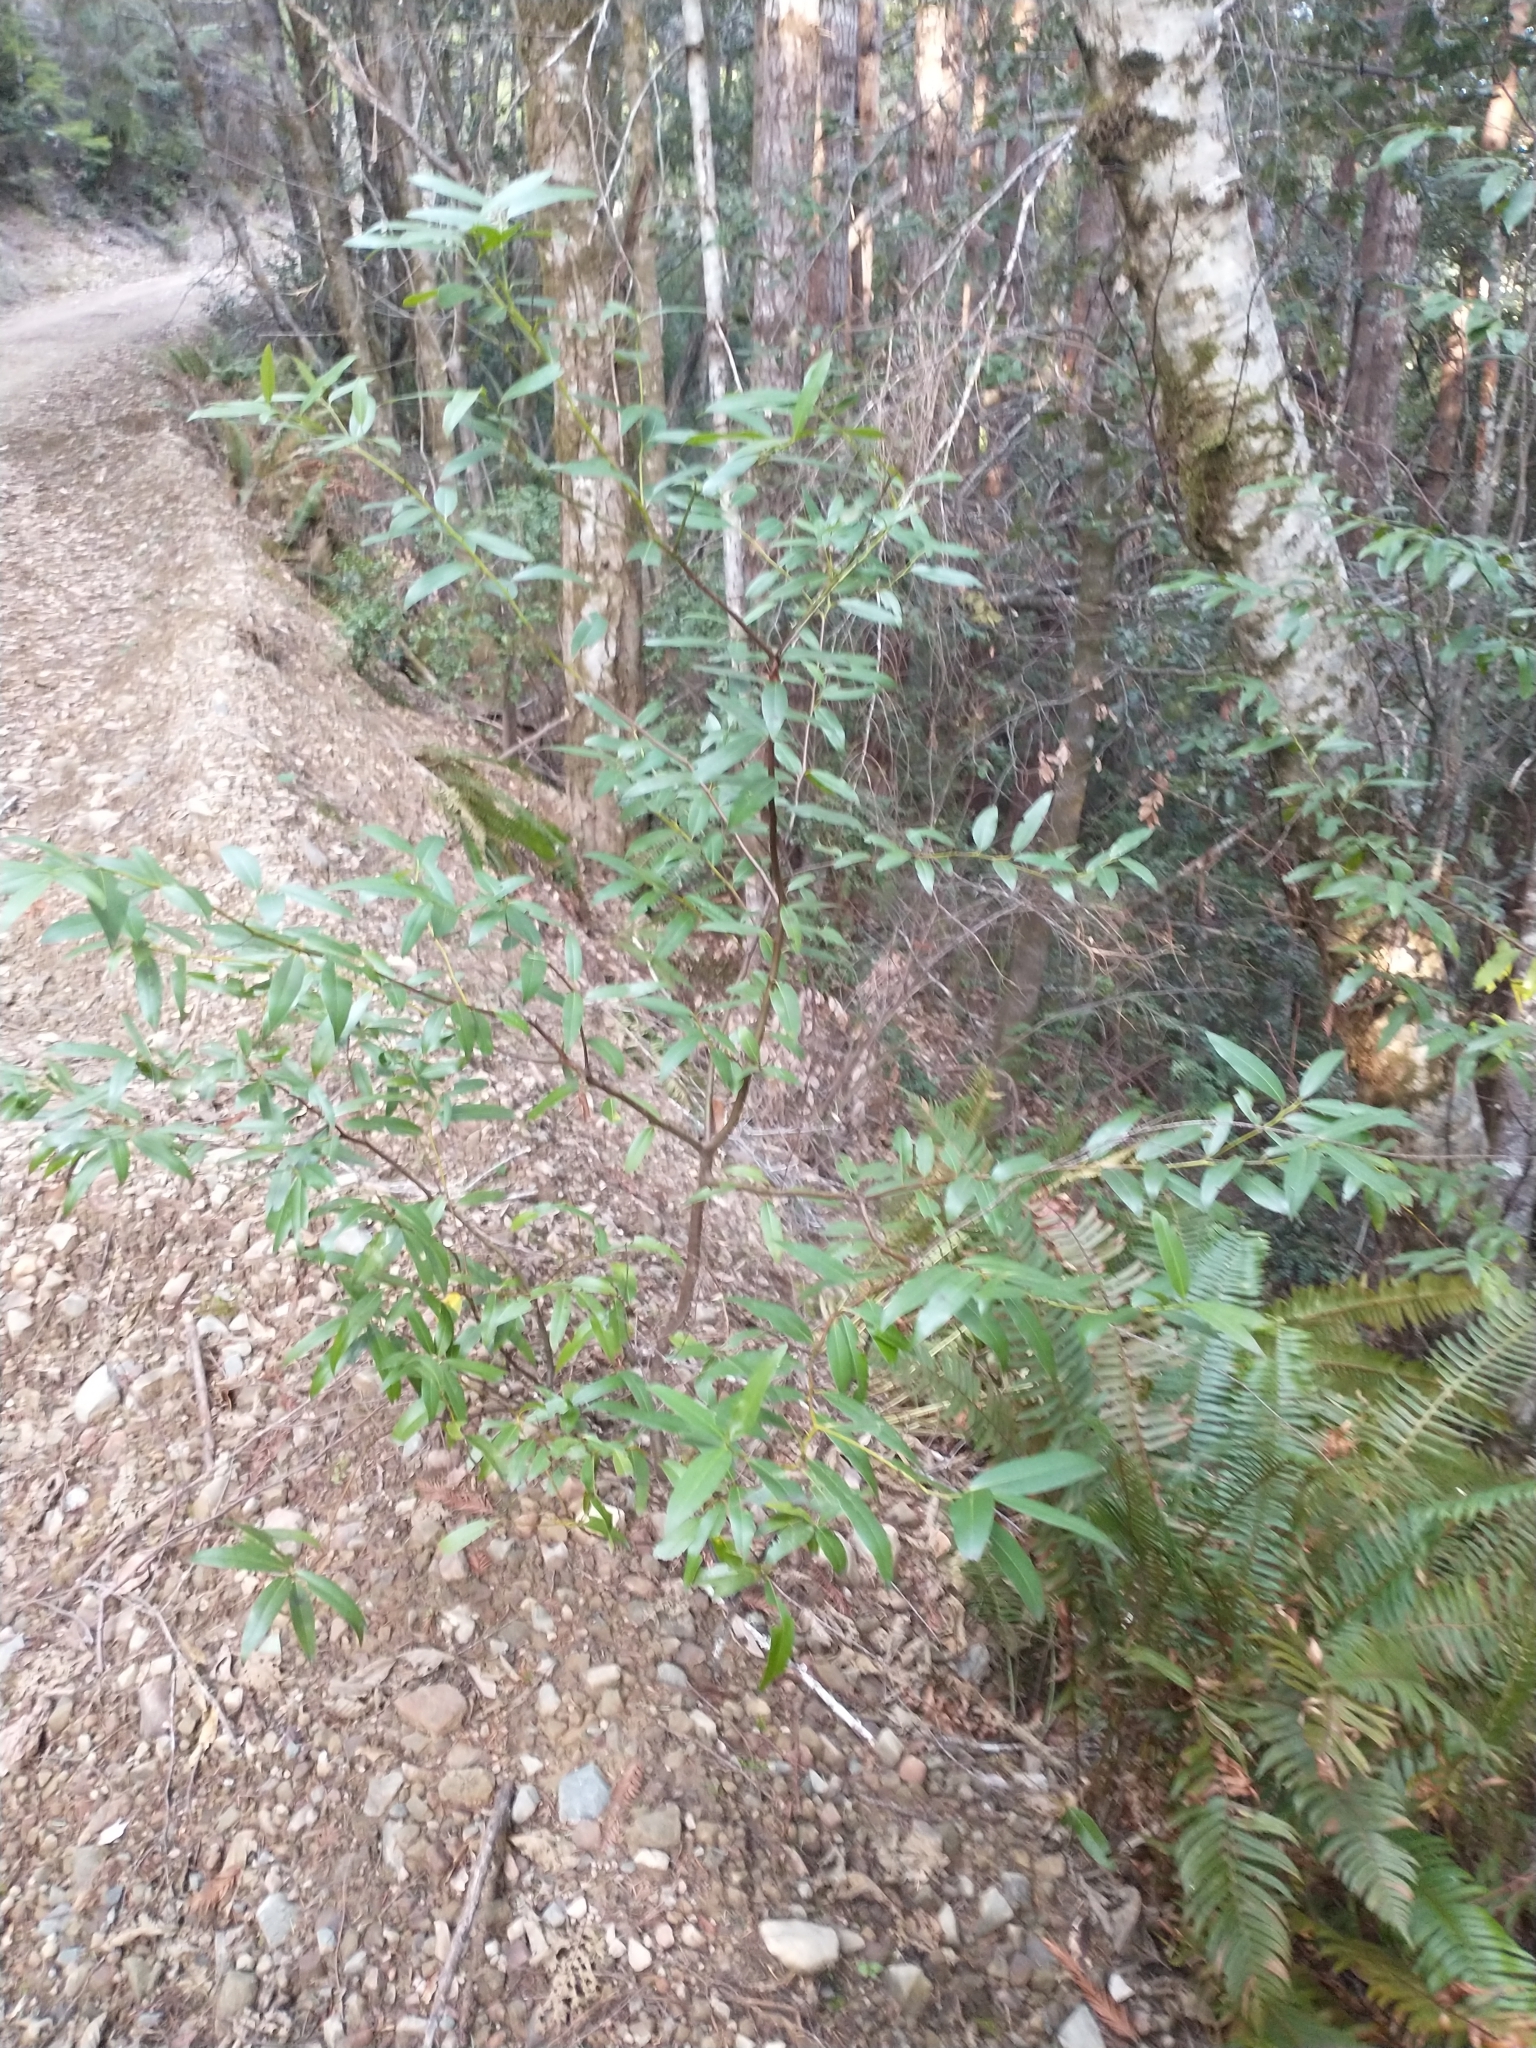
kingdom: Plantae
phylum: Tracheophyta
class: Magnoliopsida
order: Laurales
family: Lauraceae
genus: Umbellularia
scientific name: Umbellularia californica
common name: California bay
